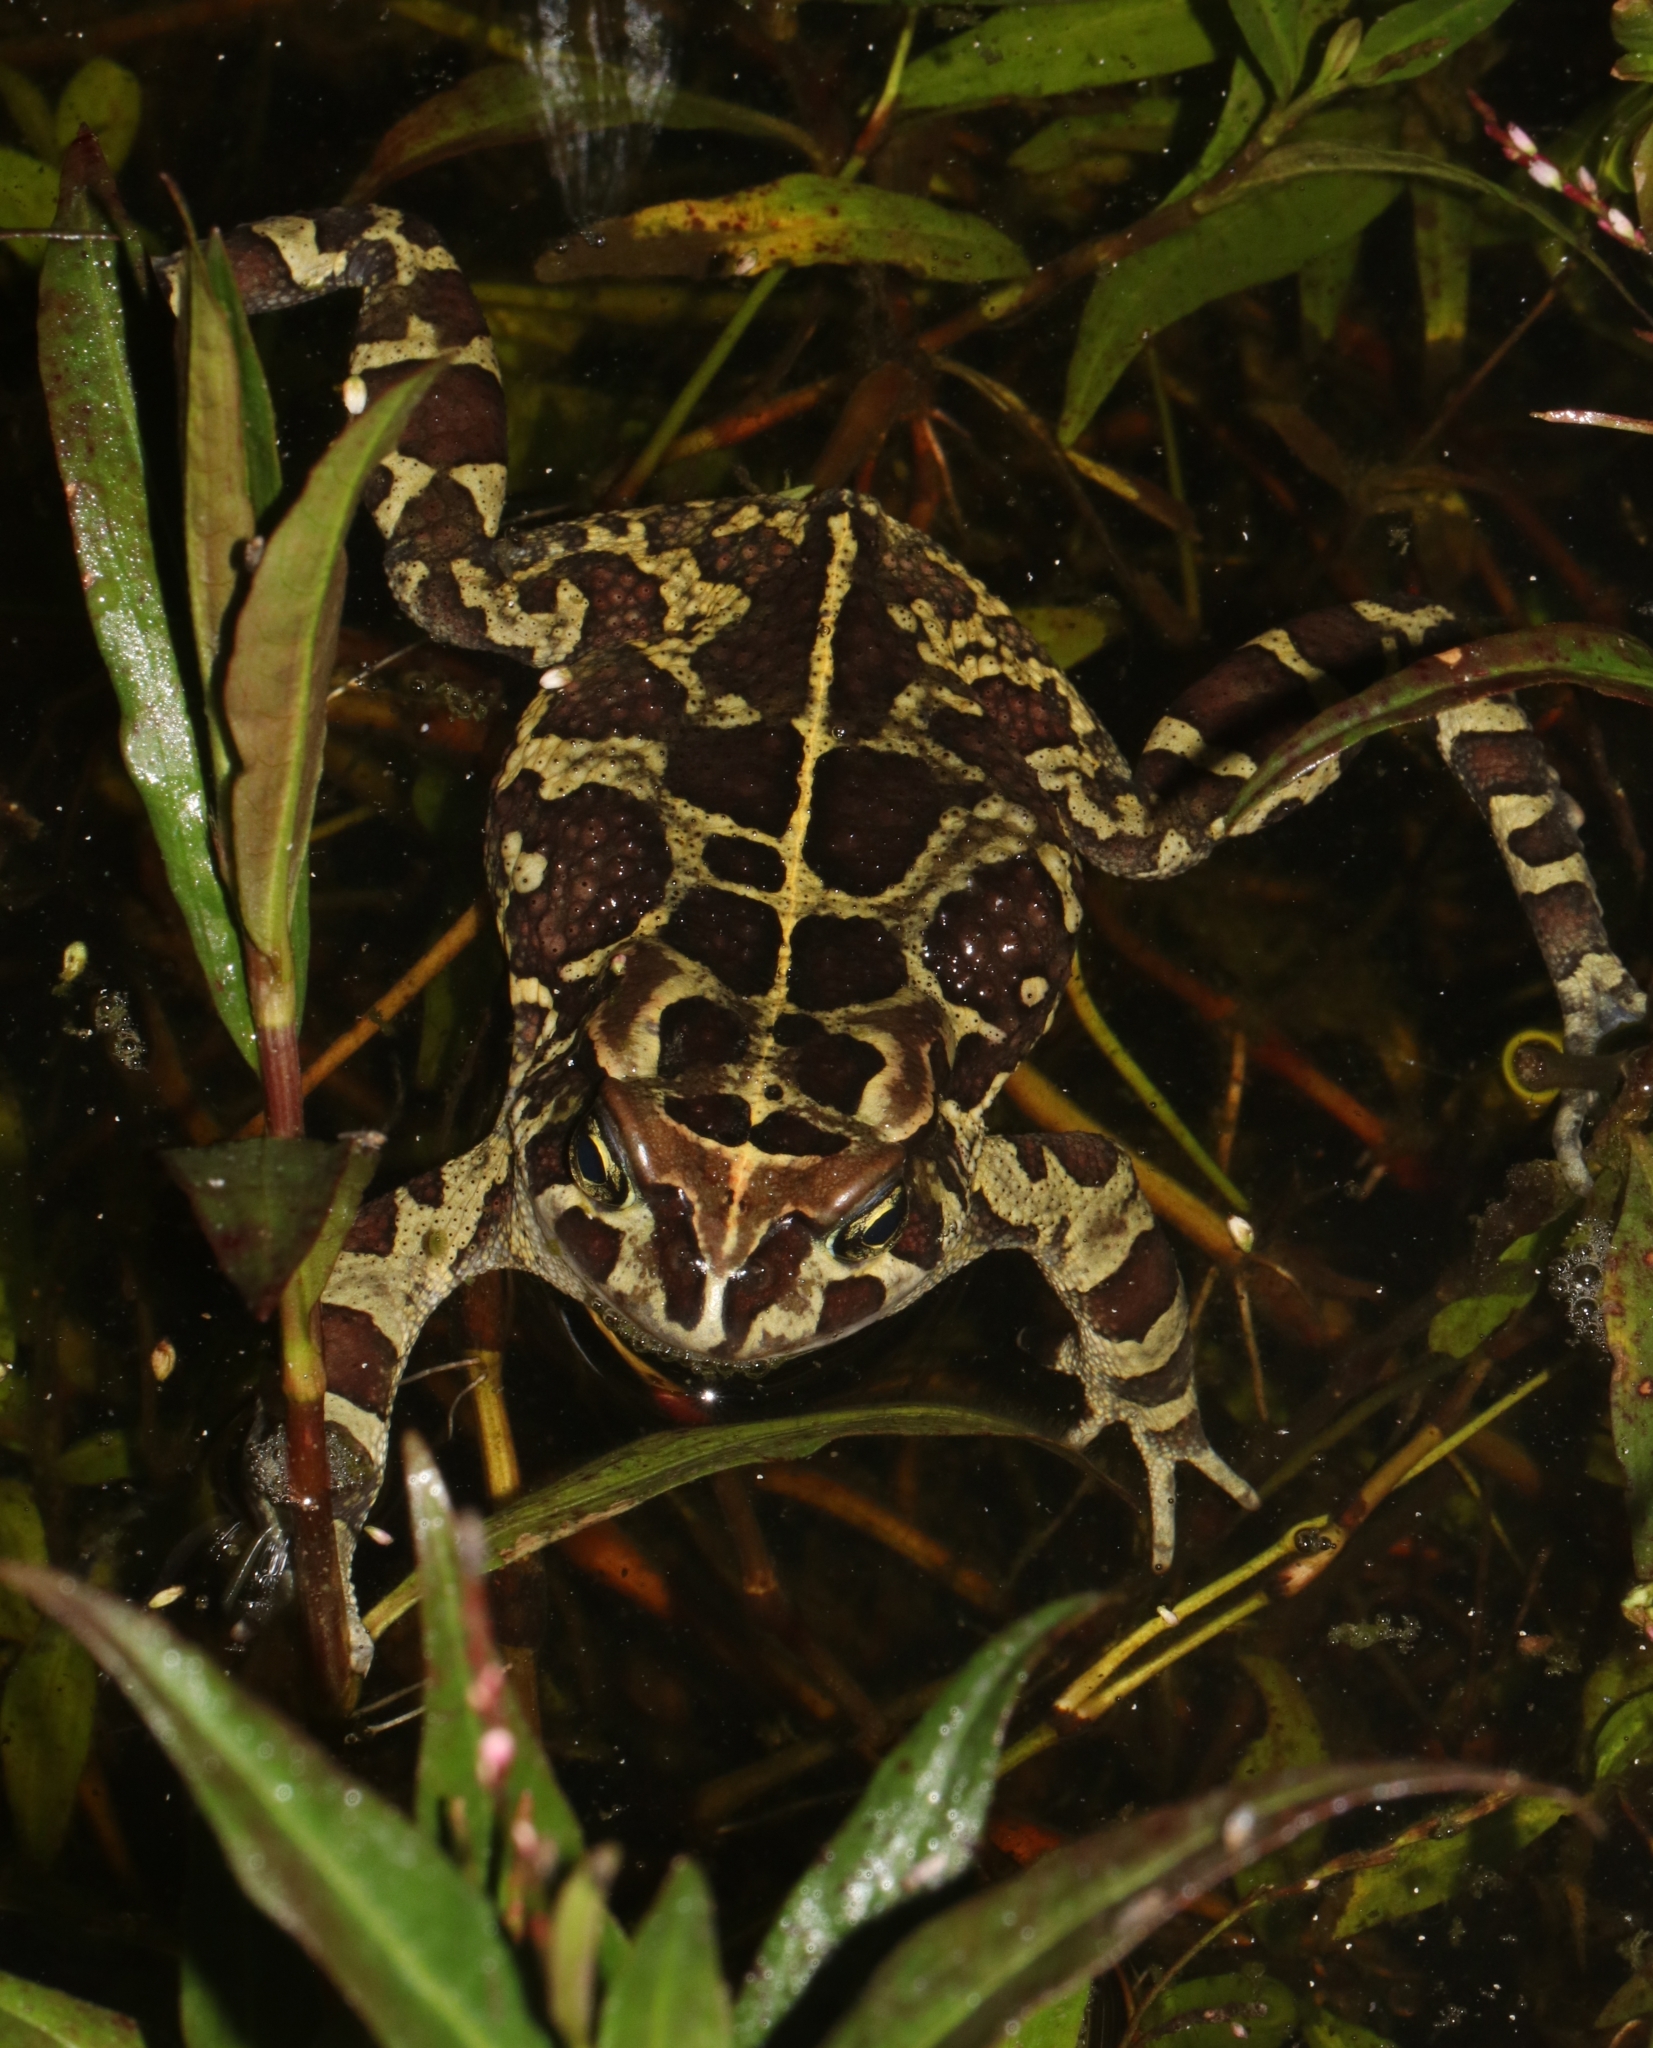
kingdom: Animalia
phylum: Chordata
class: Amphibia
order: Anura
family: Bufonidae
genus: Sclerophrys
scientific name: Sclerophrys pantherina
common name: Panther toad
